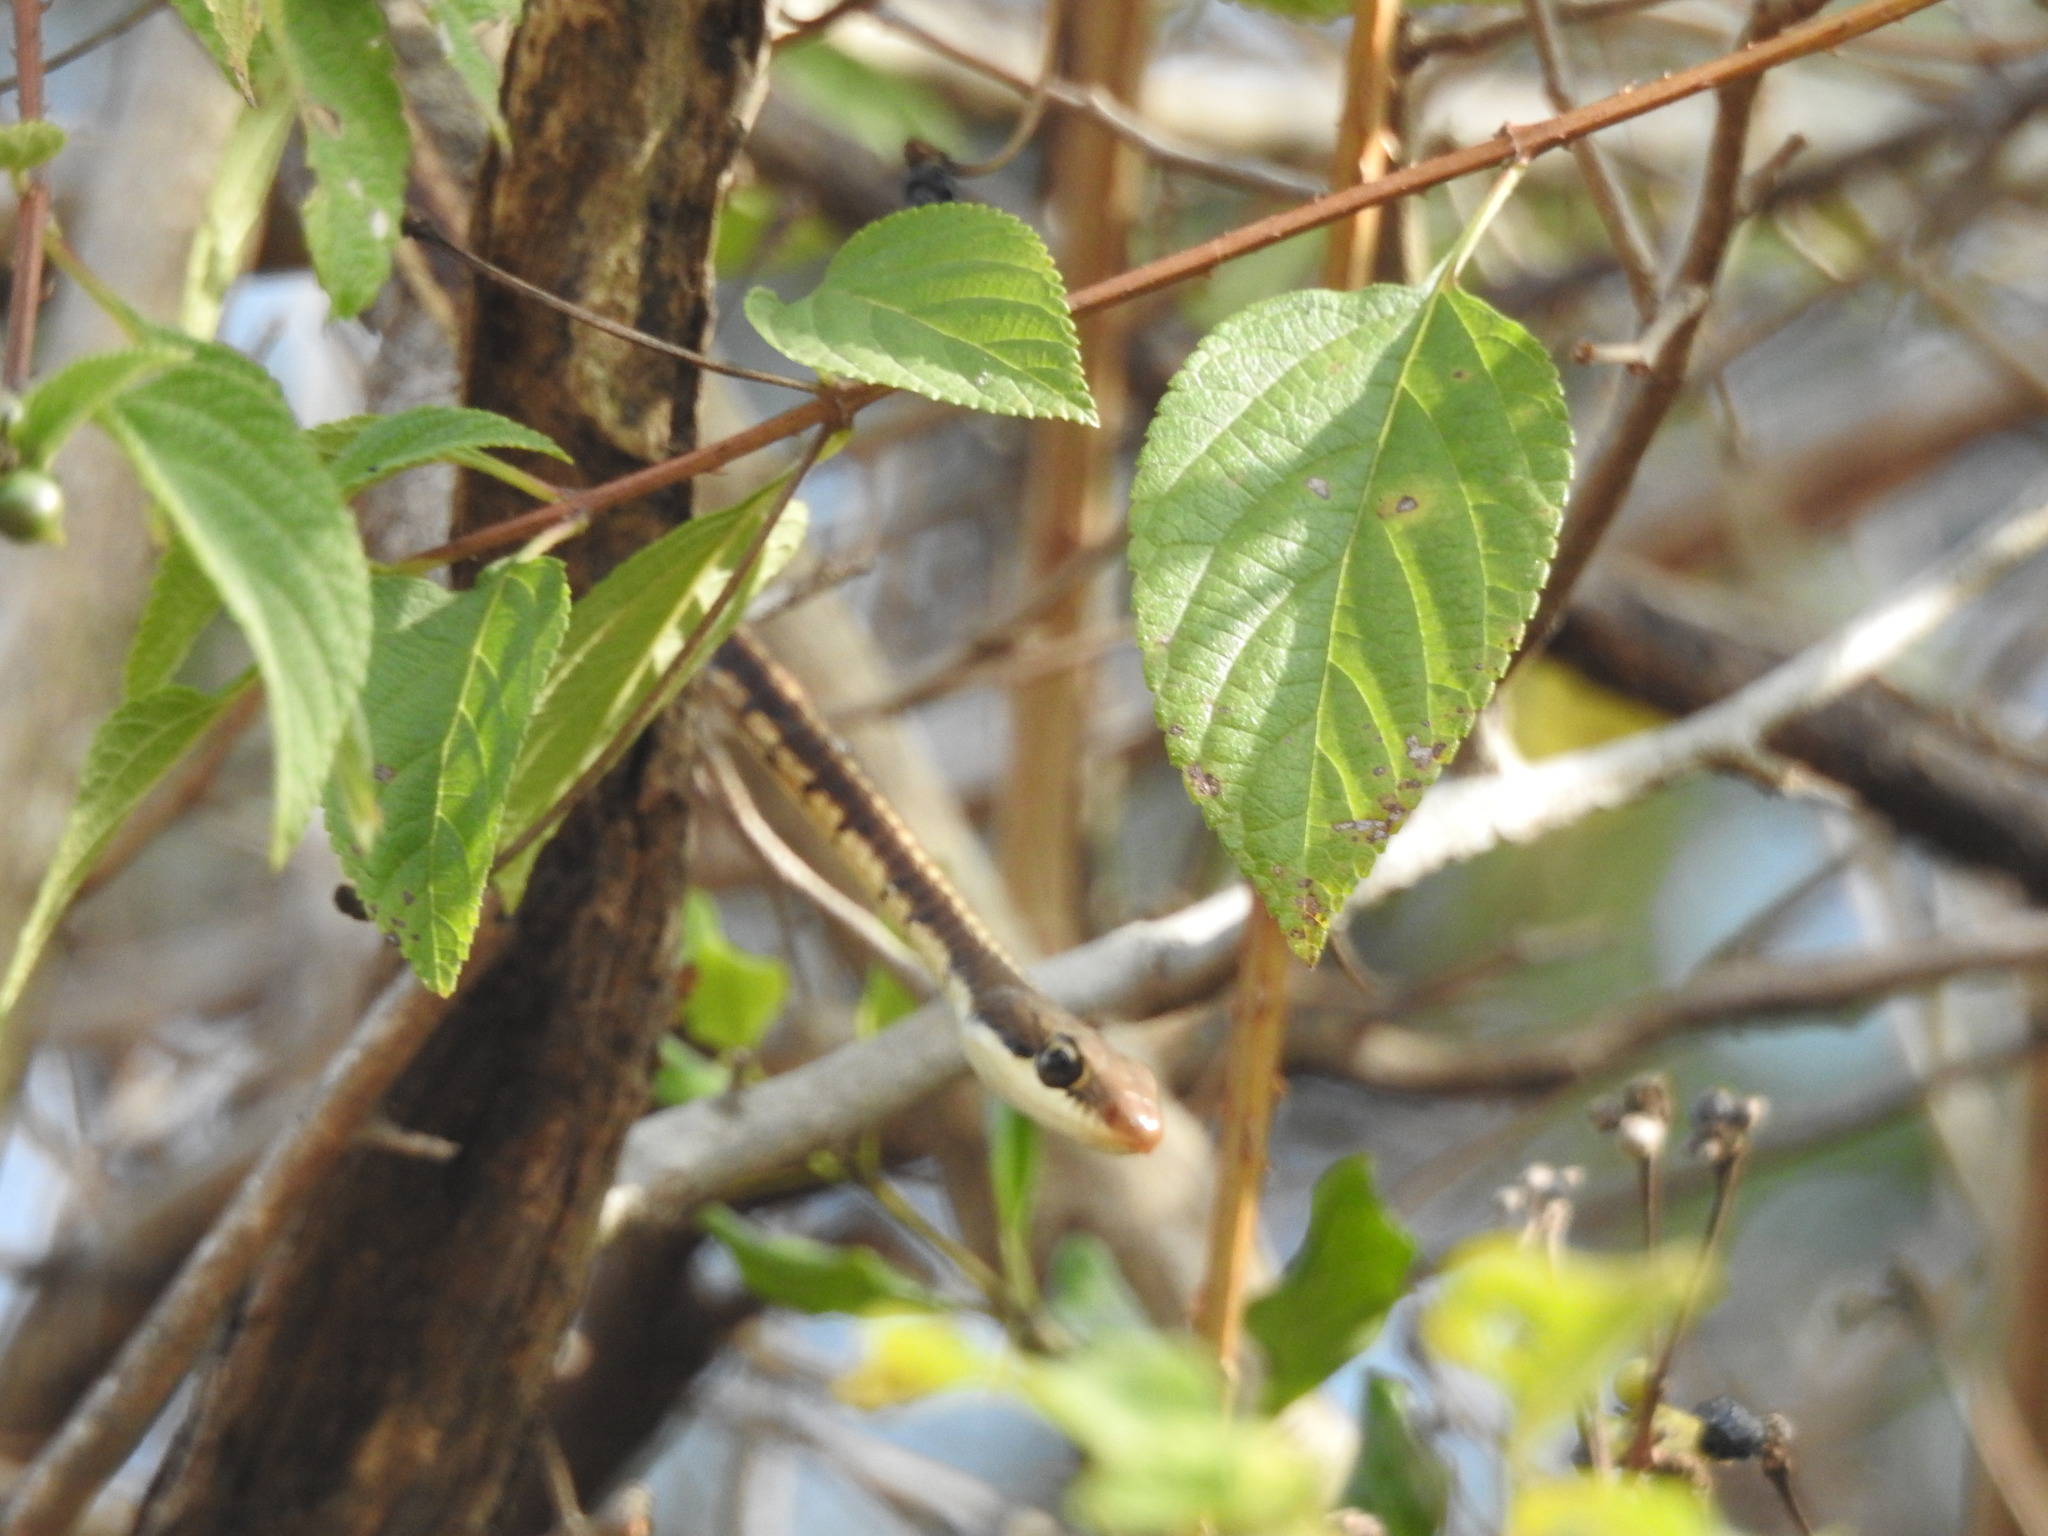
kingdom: Animalia
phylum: Chordata
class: Squamata
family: Colubridae
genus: Dendrelaphis
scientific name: Dendrelaphis tristis
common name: Daudin's bronzeback
